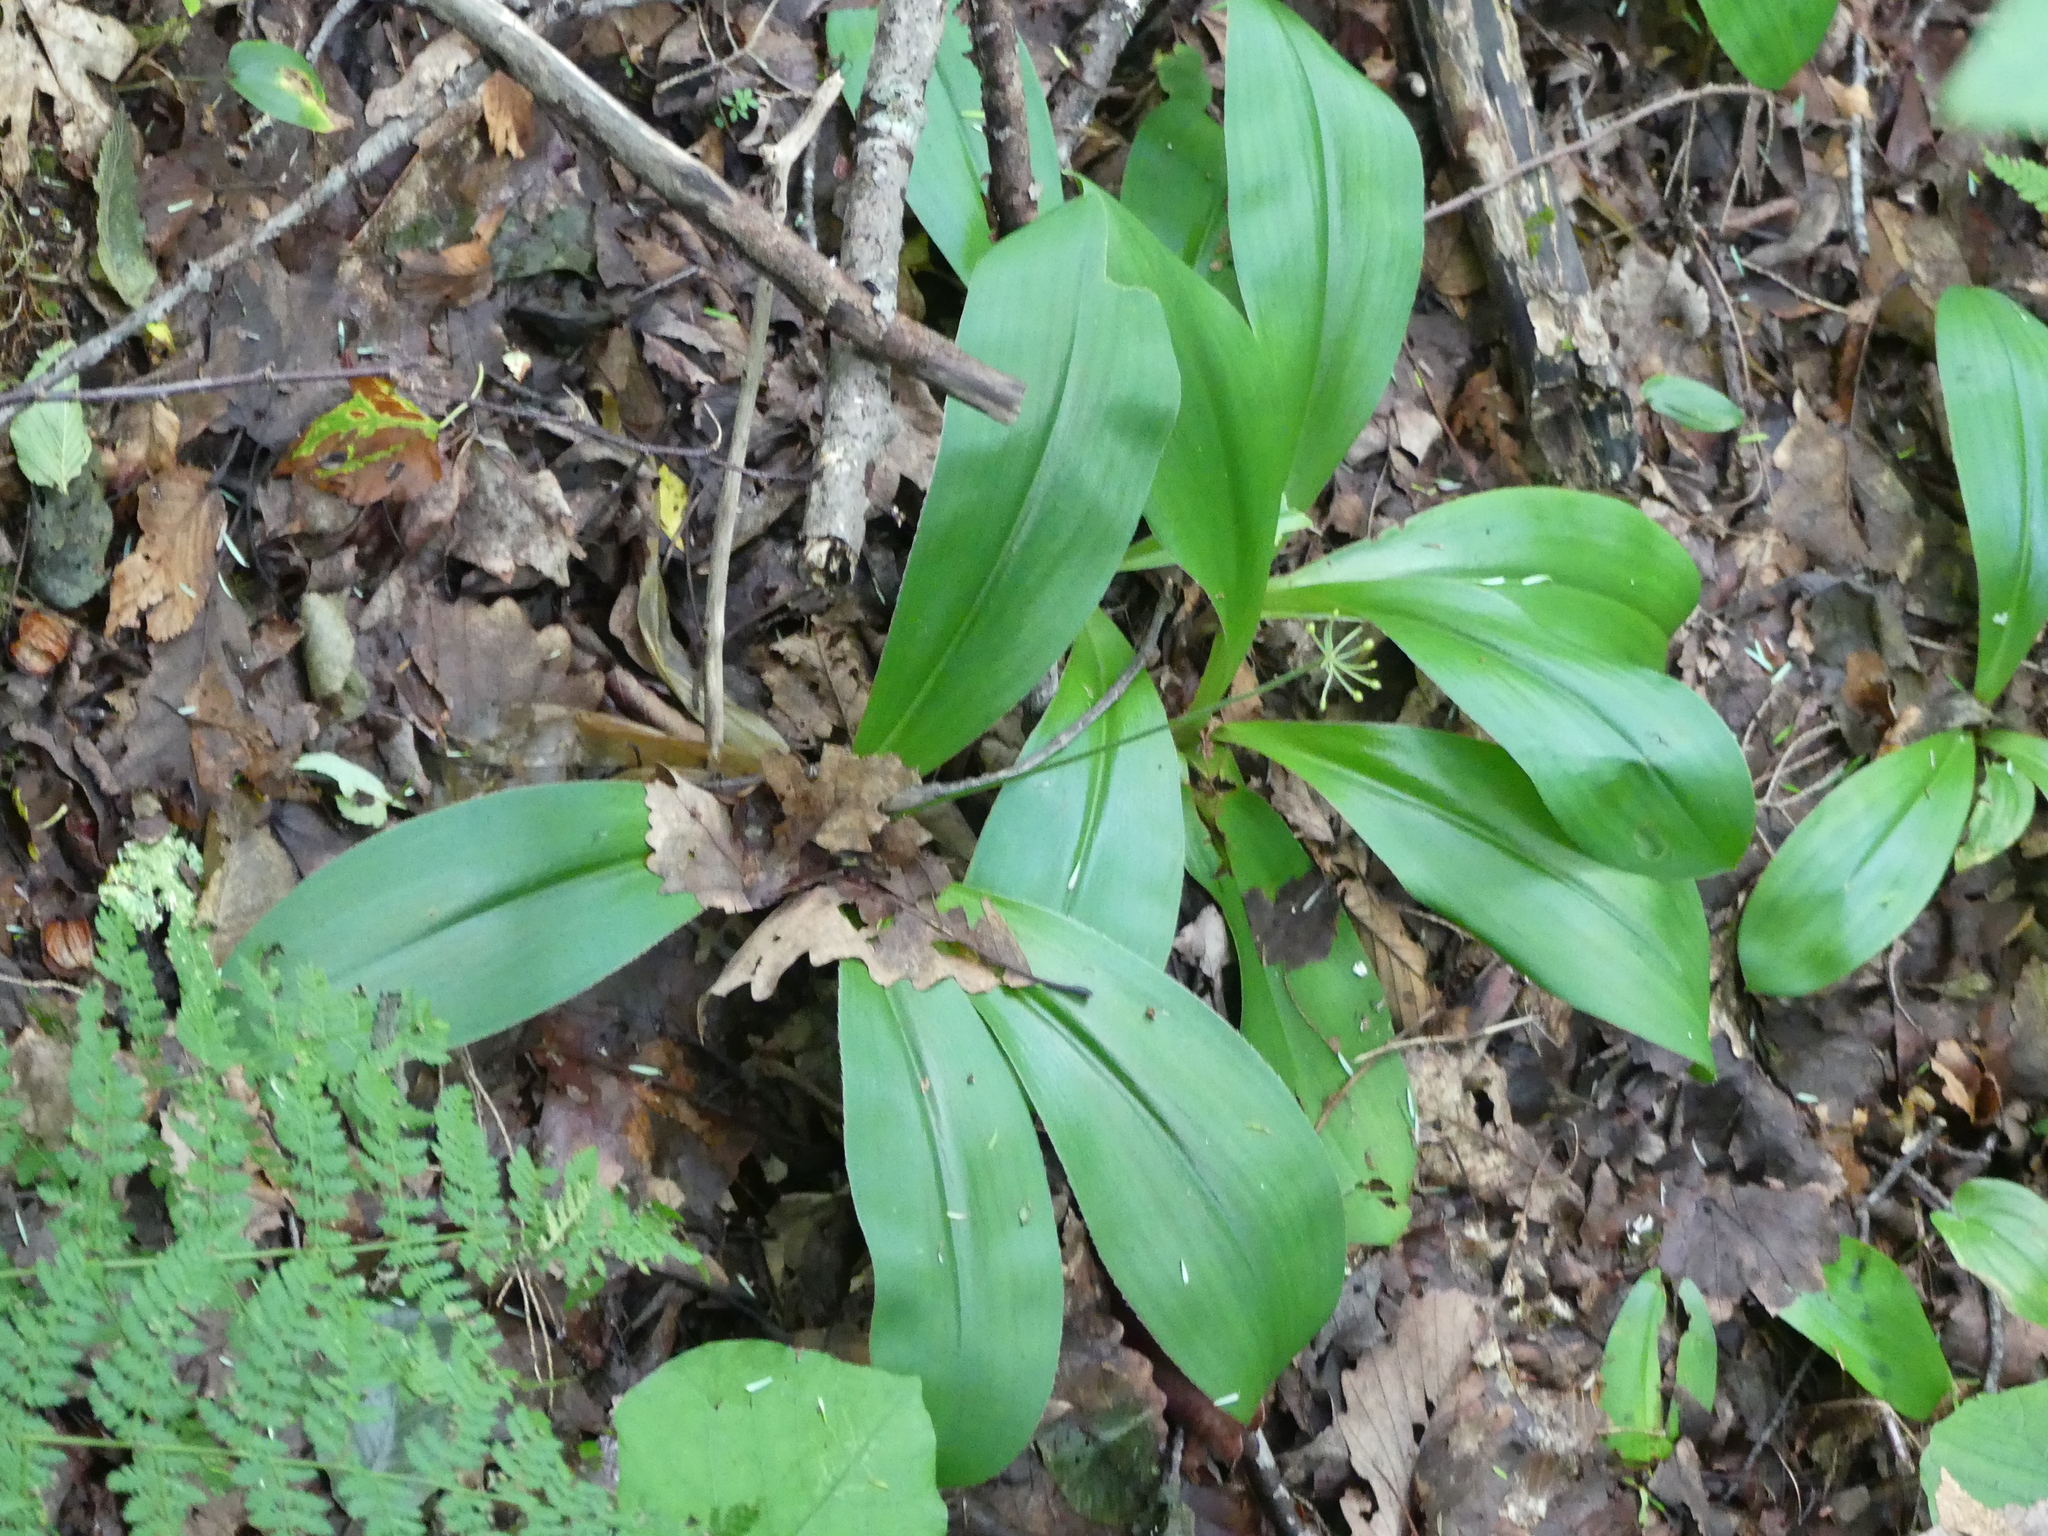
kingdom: Plantae
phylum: Tracheophyta
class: Liliopsida
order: Liliales
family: Liliaceae
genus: Clintonia
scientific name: Clintonia umbellulata
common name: Speckle wood-lily
